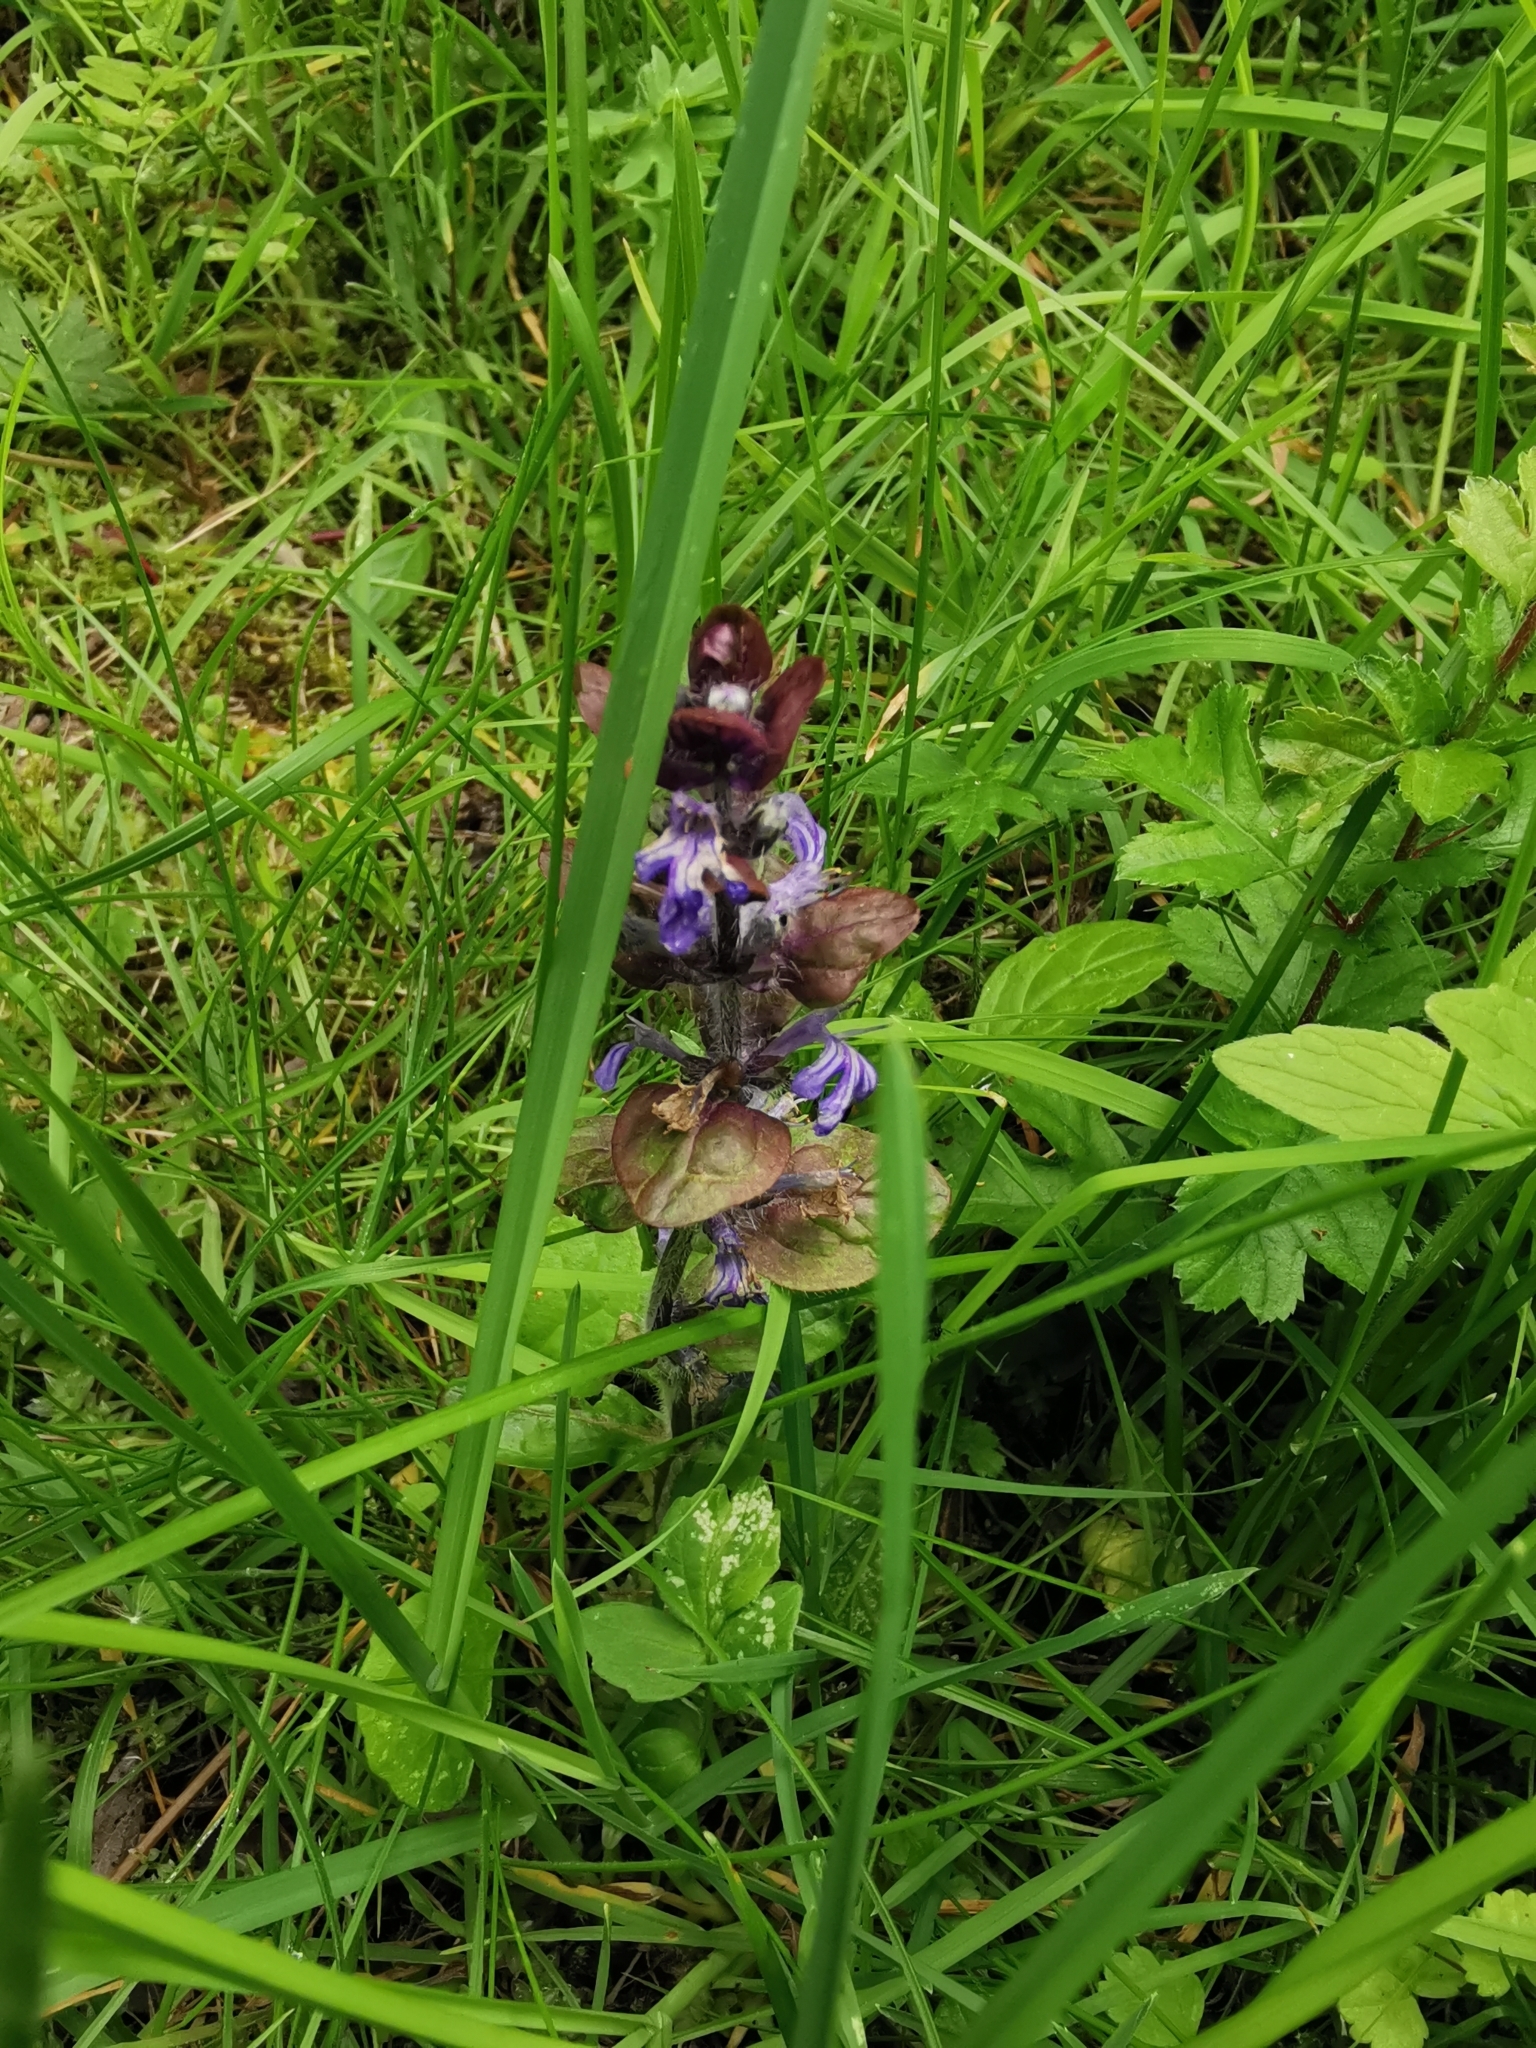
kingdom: Plantae
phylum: Tracheophyta
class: Magnoliopsida
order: Lamiales
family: Lamiaceae
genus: Ajuga
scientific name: Ajuga reptans
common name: Bugle
